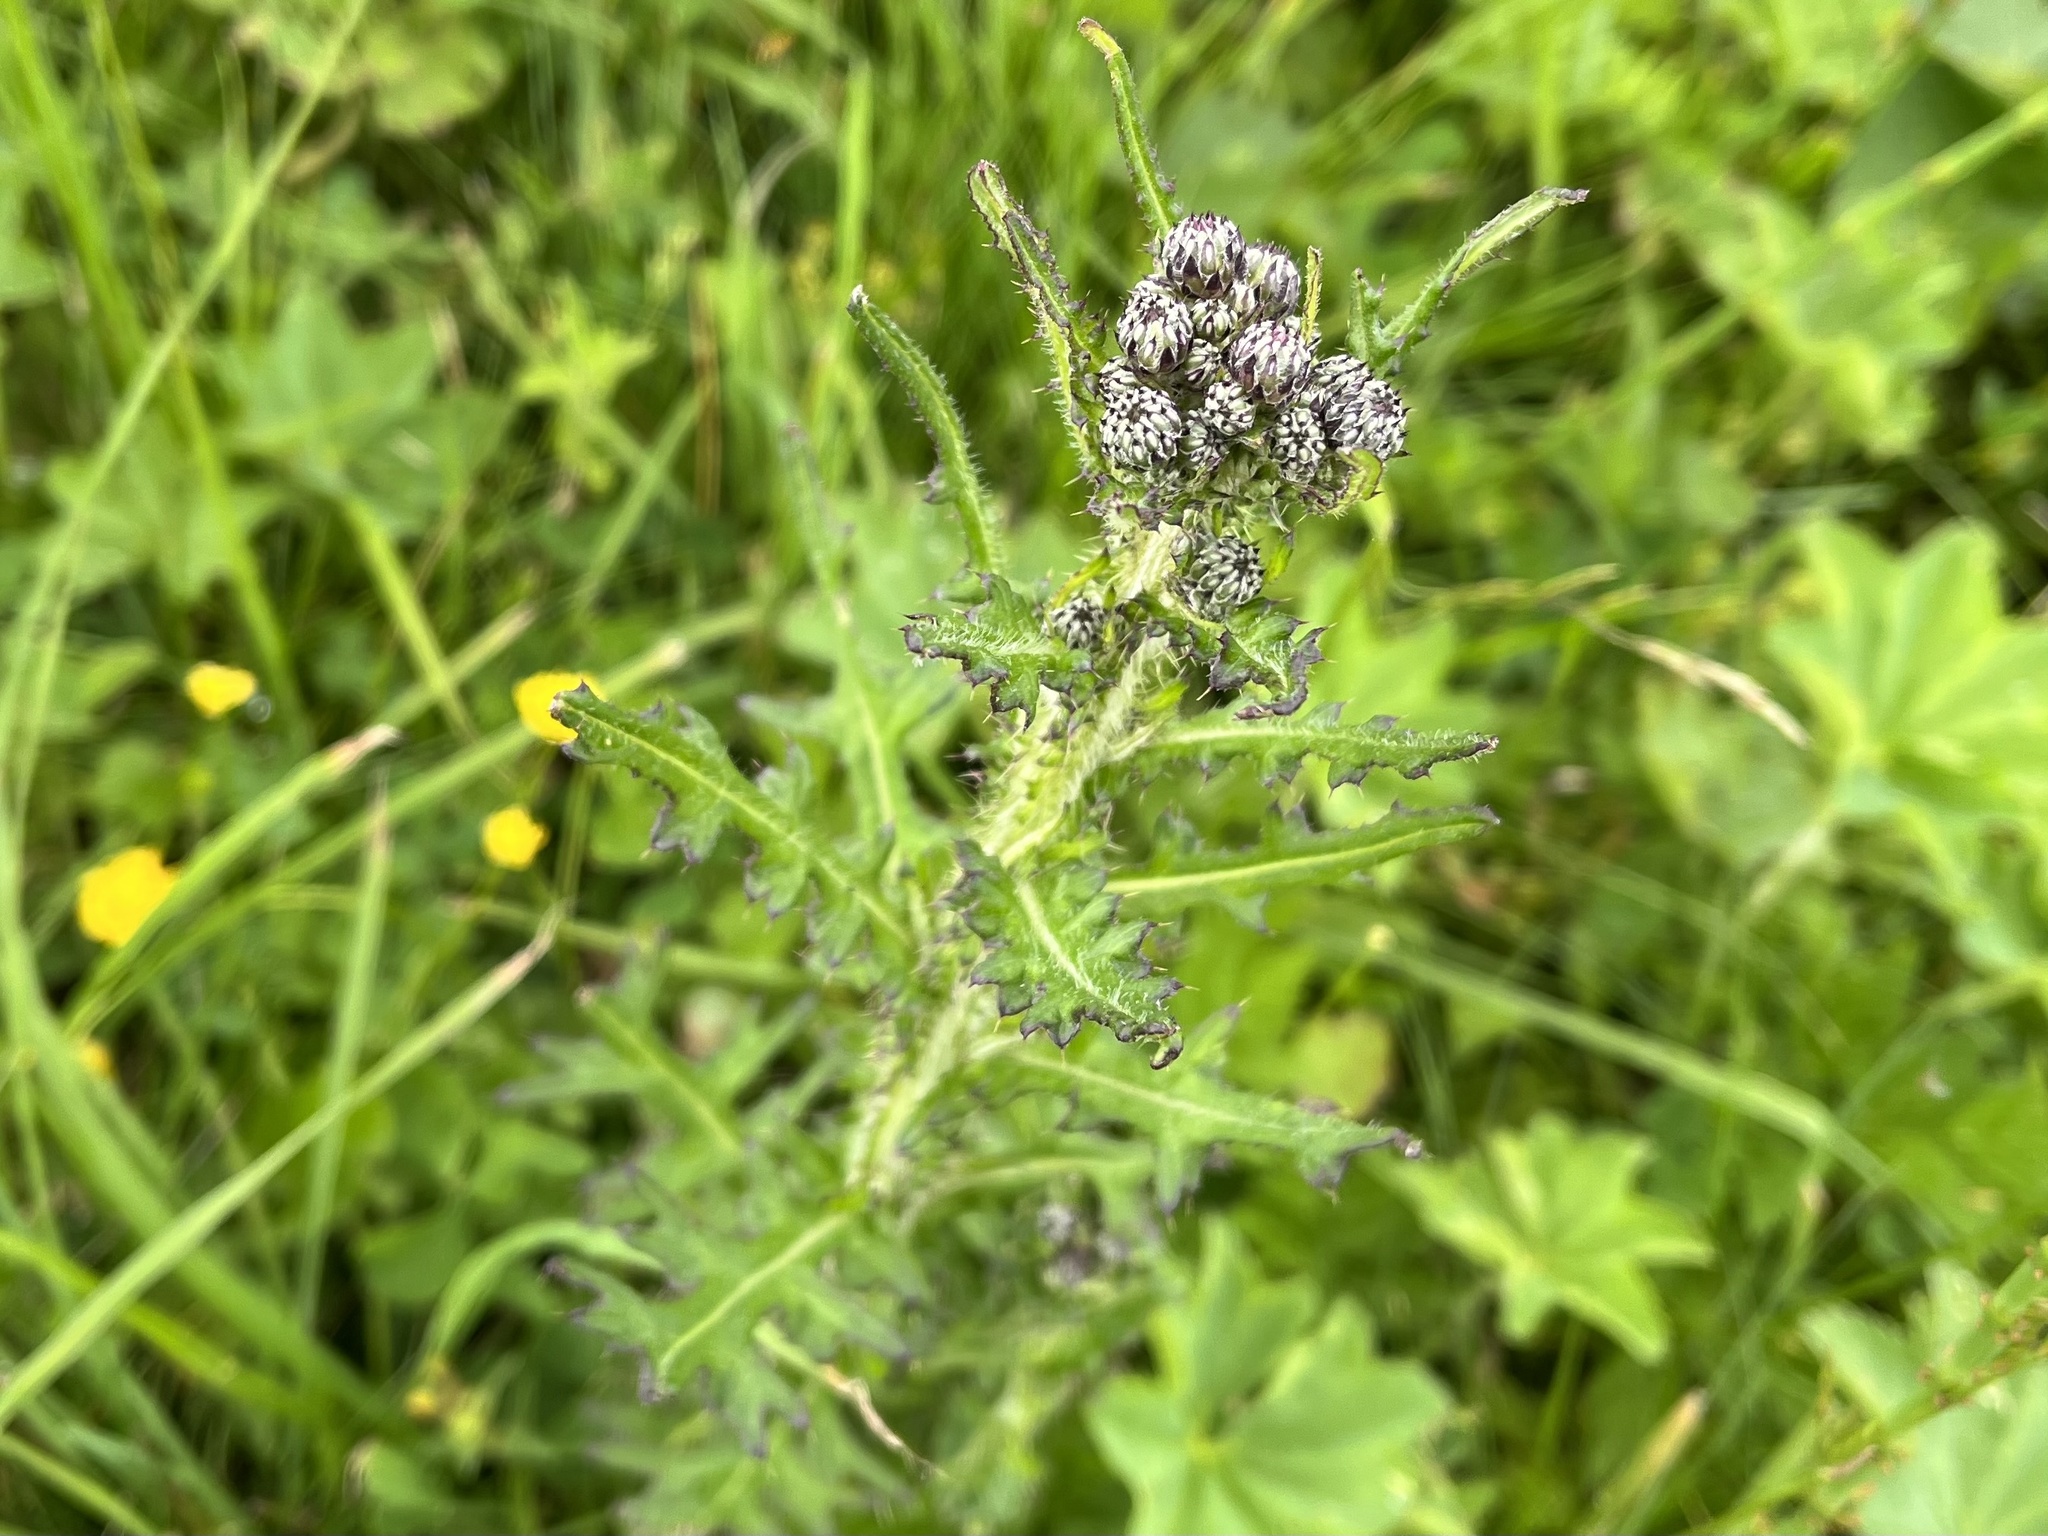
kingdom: Plantae
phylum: Tracheophyta
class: Magnoliopsida
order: Asterales
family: Asteraceae
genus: Cirsium
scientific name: Cirsium palustre
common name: Marsh thistle
